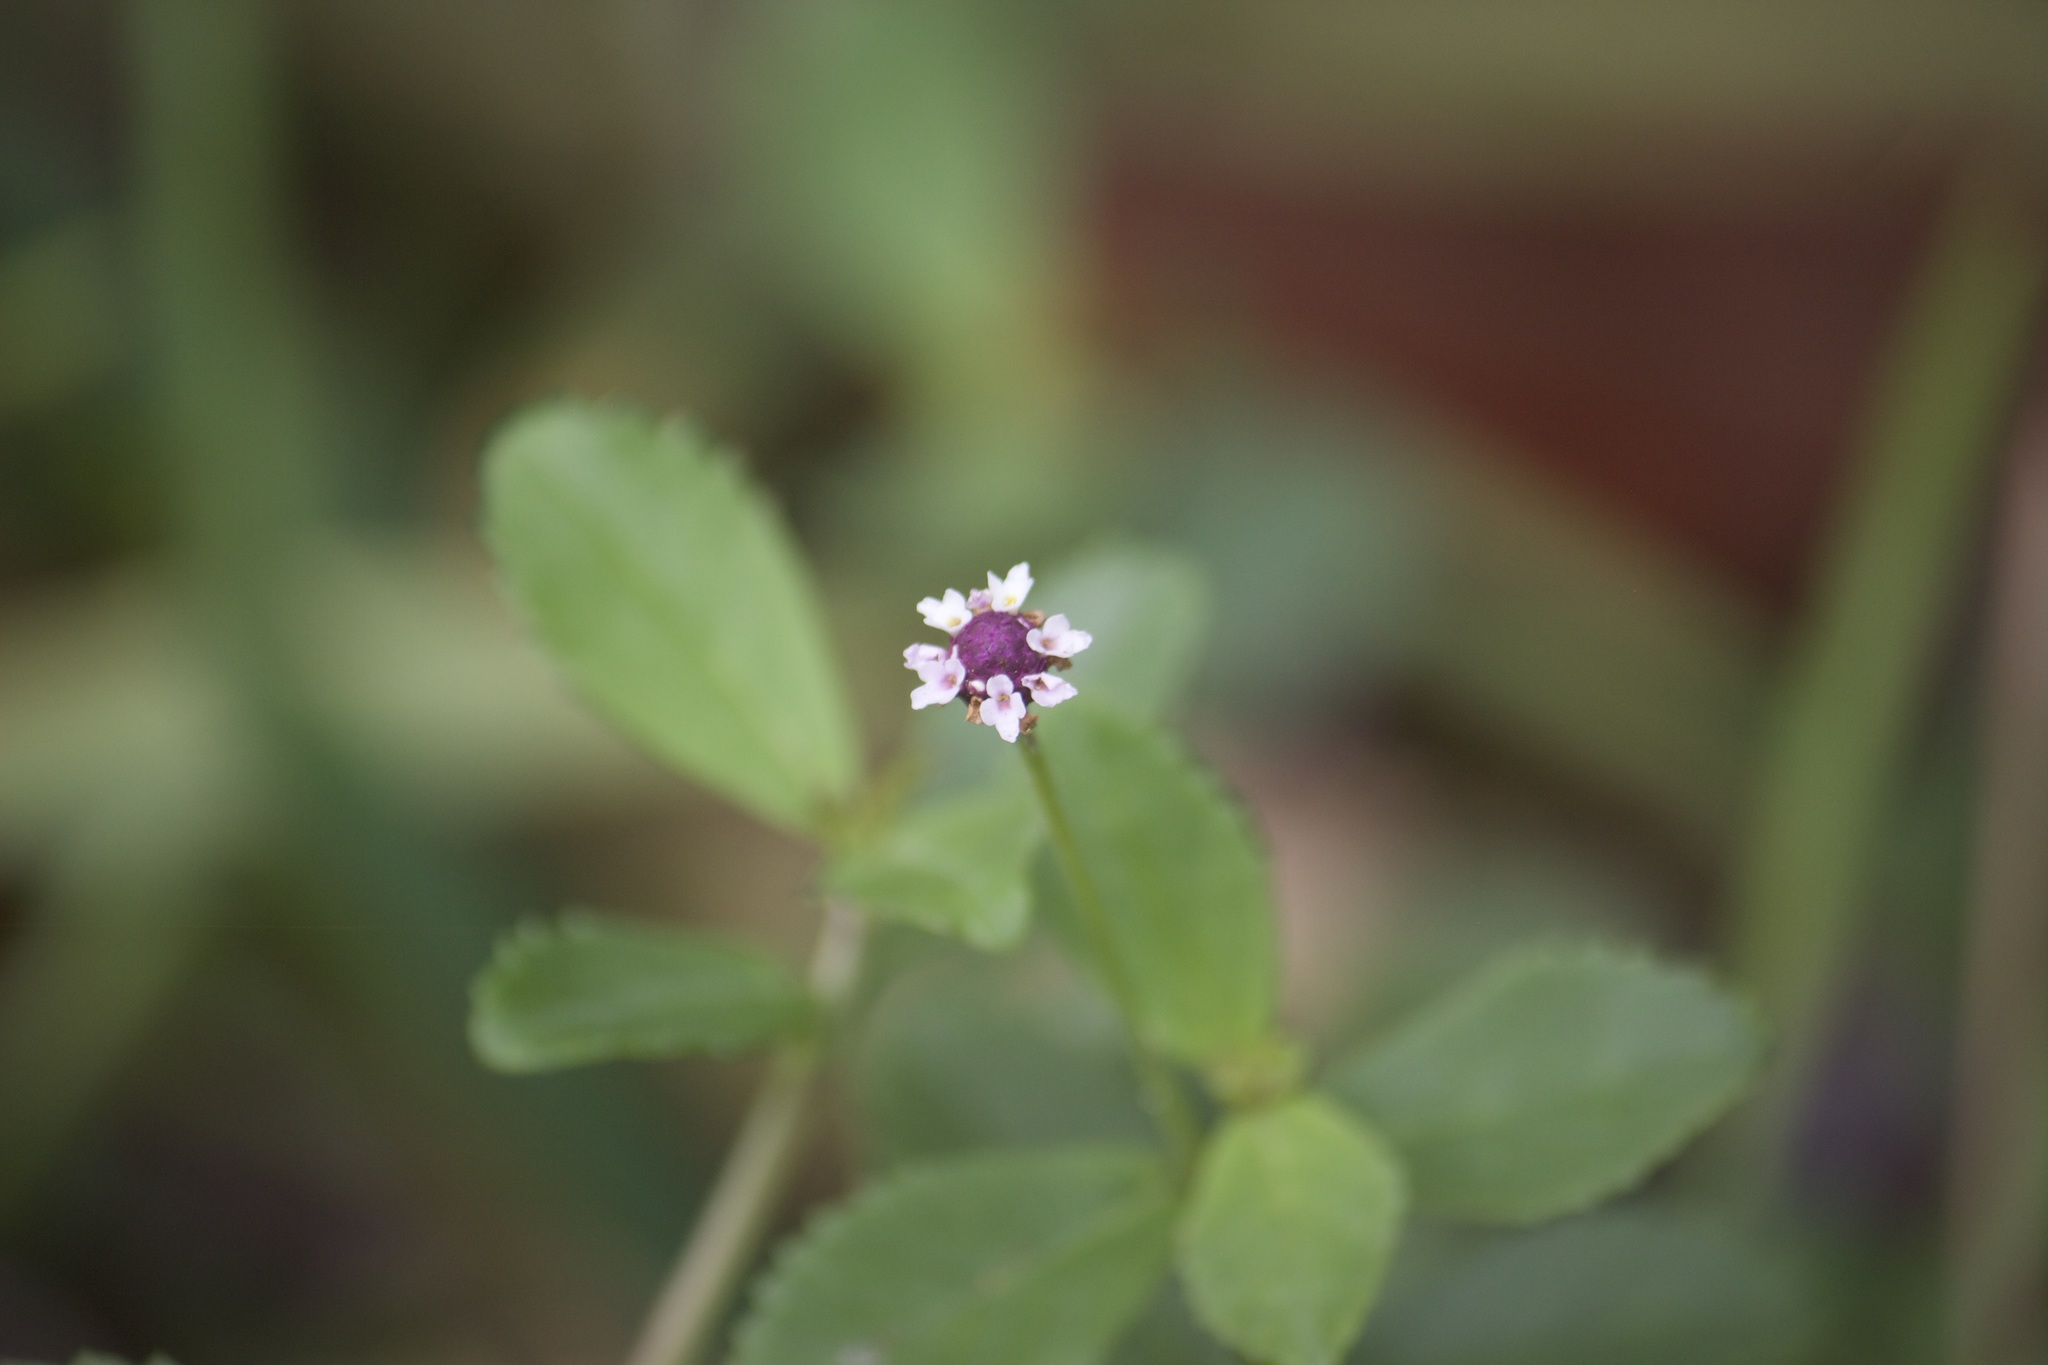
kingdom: Plantae
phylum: Tracheophyta
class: Magnoliopsida
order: Lamiales
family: Verbenaceae
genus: Phyla
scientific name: Phyla nodiflora
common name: Frogfruit
